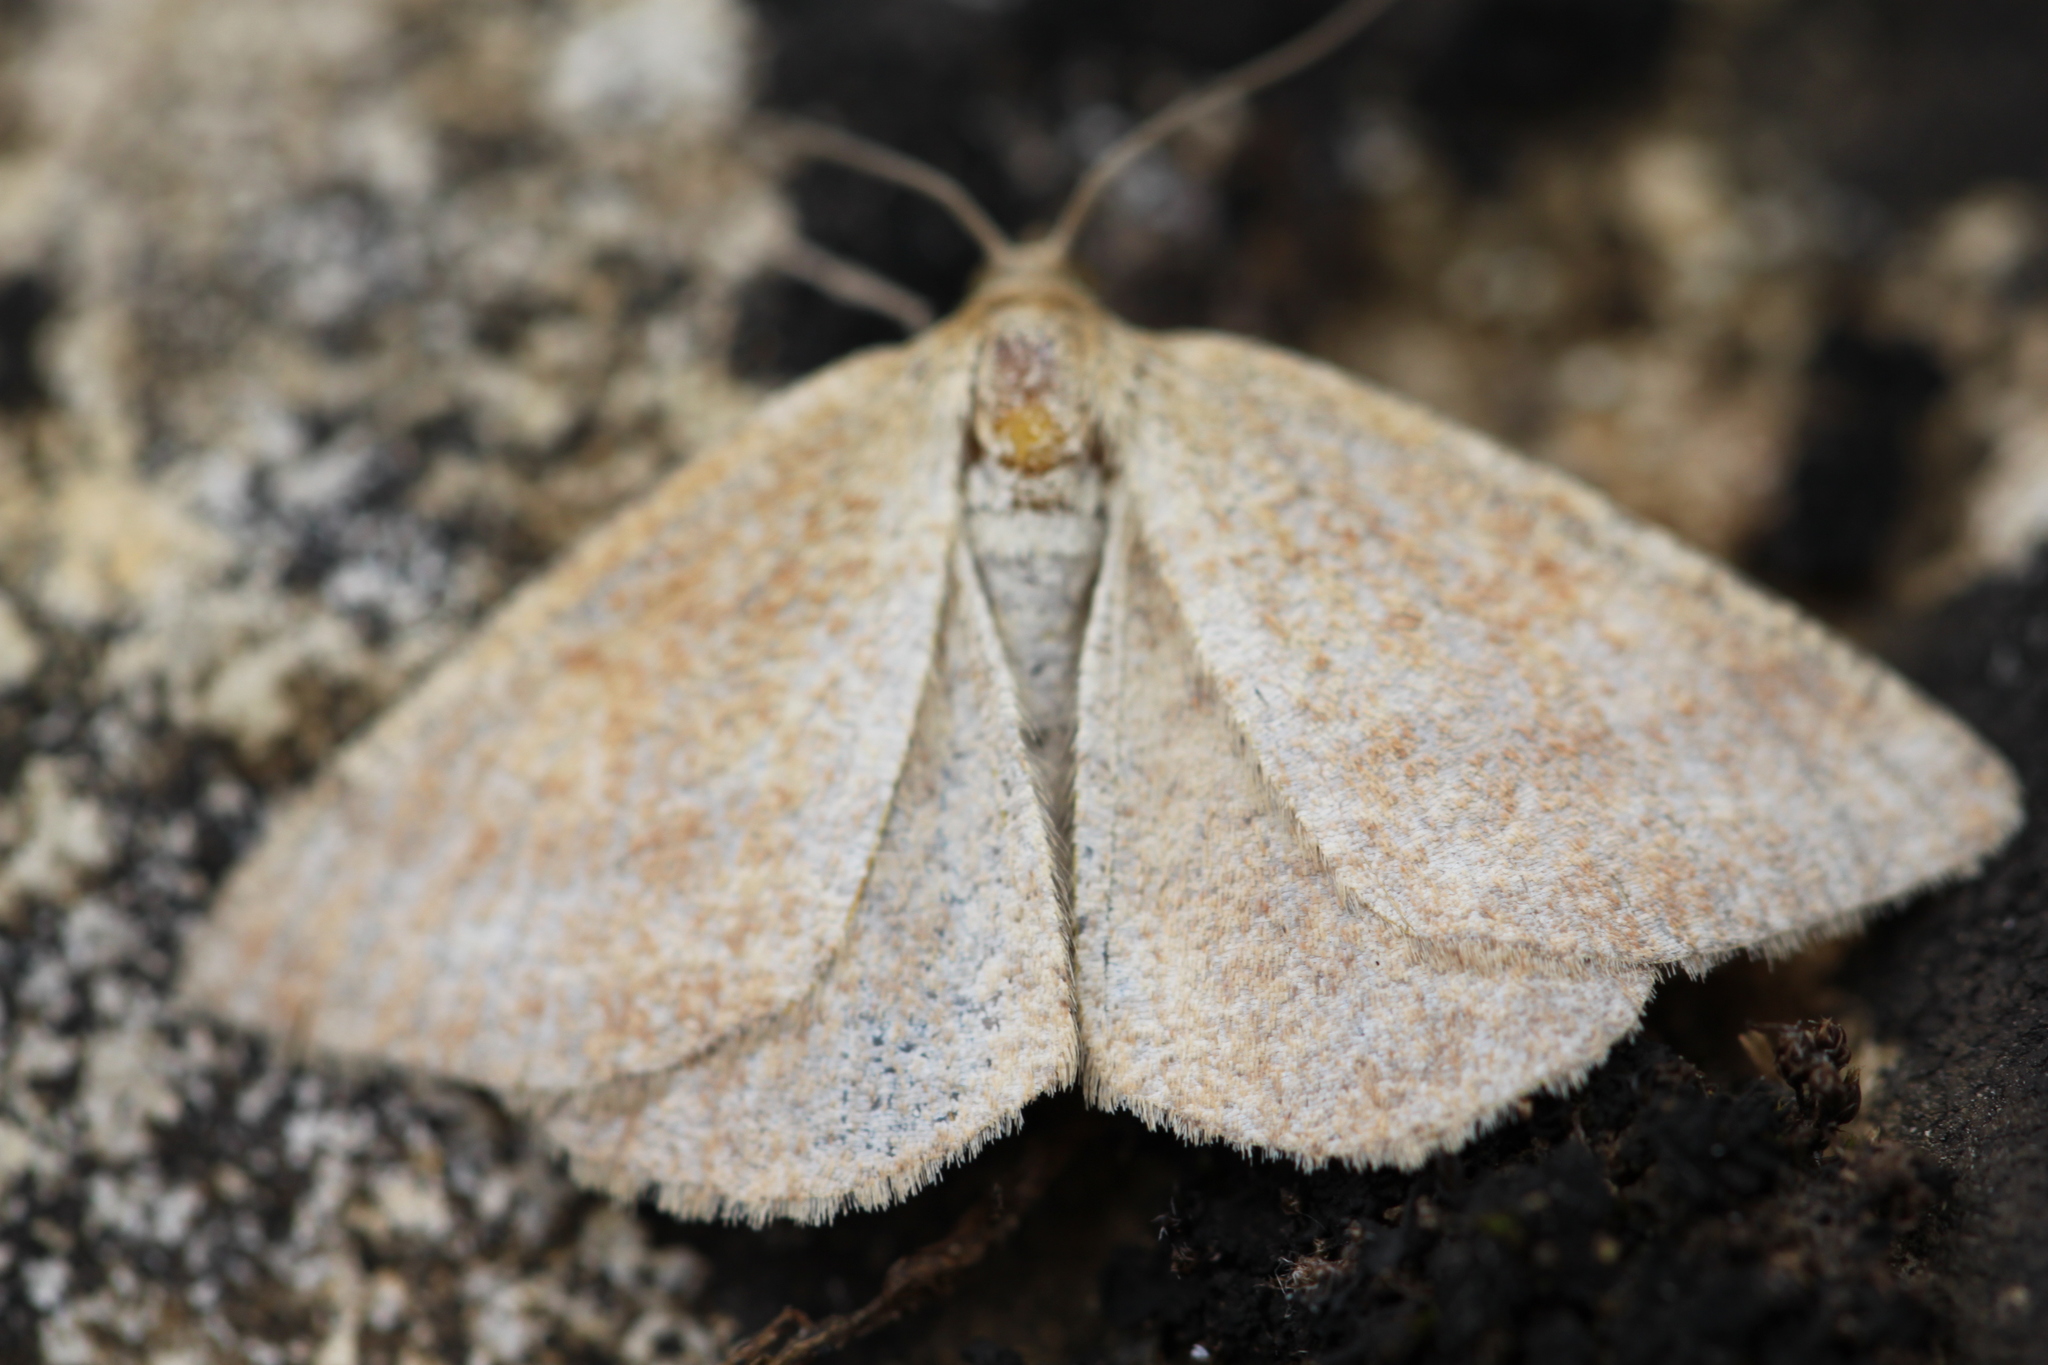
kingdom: Animalia
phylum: Arthropoda
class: Insecta
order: Lepidoptera
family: Geometridae
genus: Aplasta
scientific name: Aplasta ononaria
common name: Rest harrow
